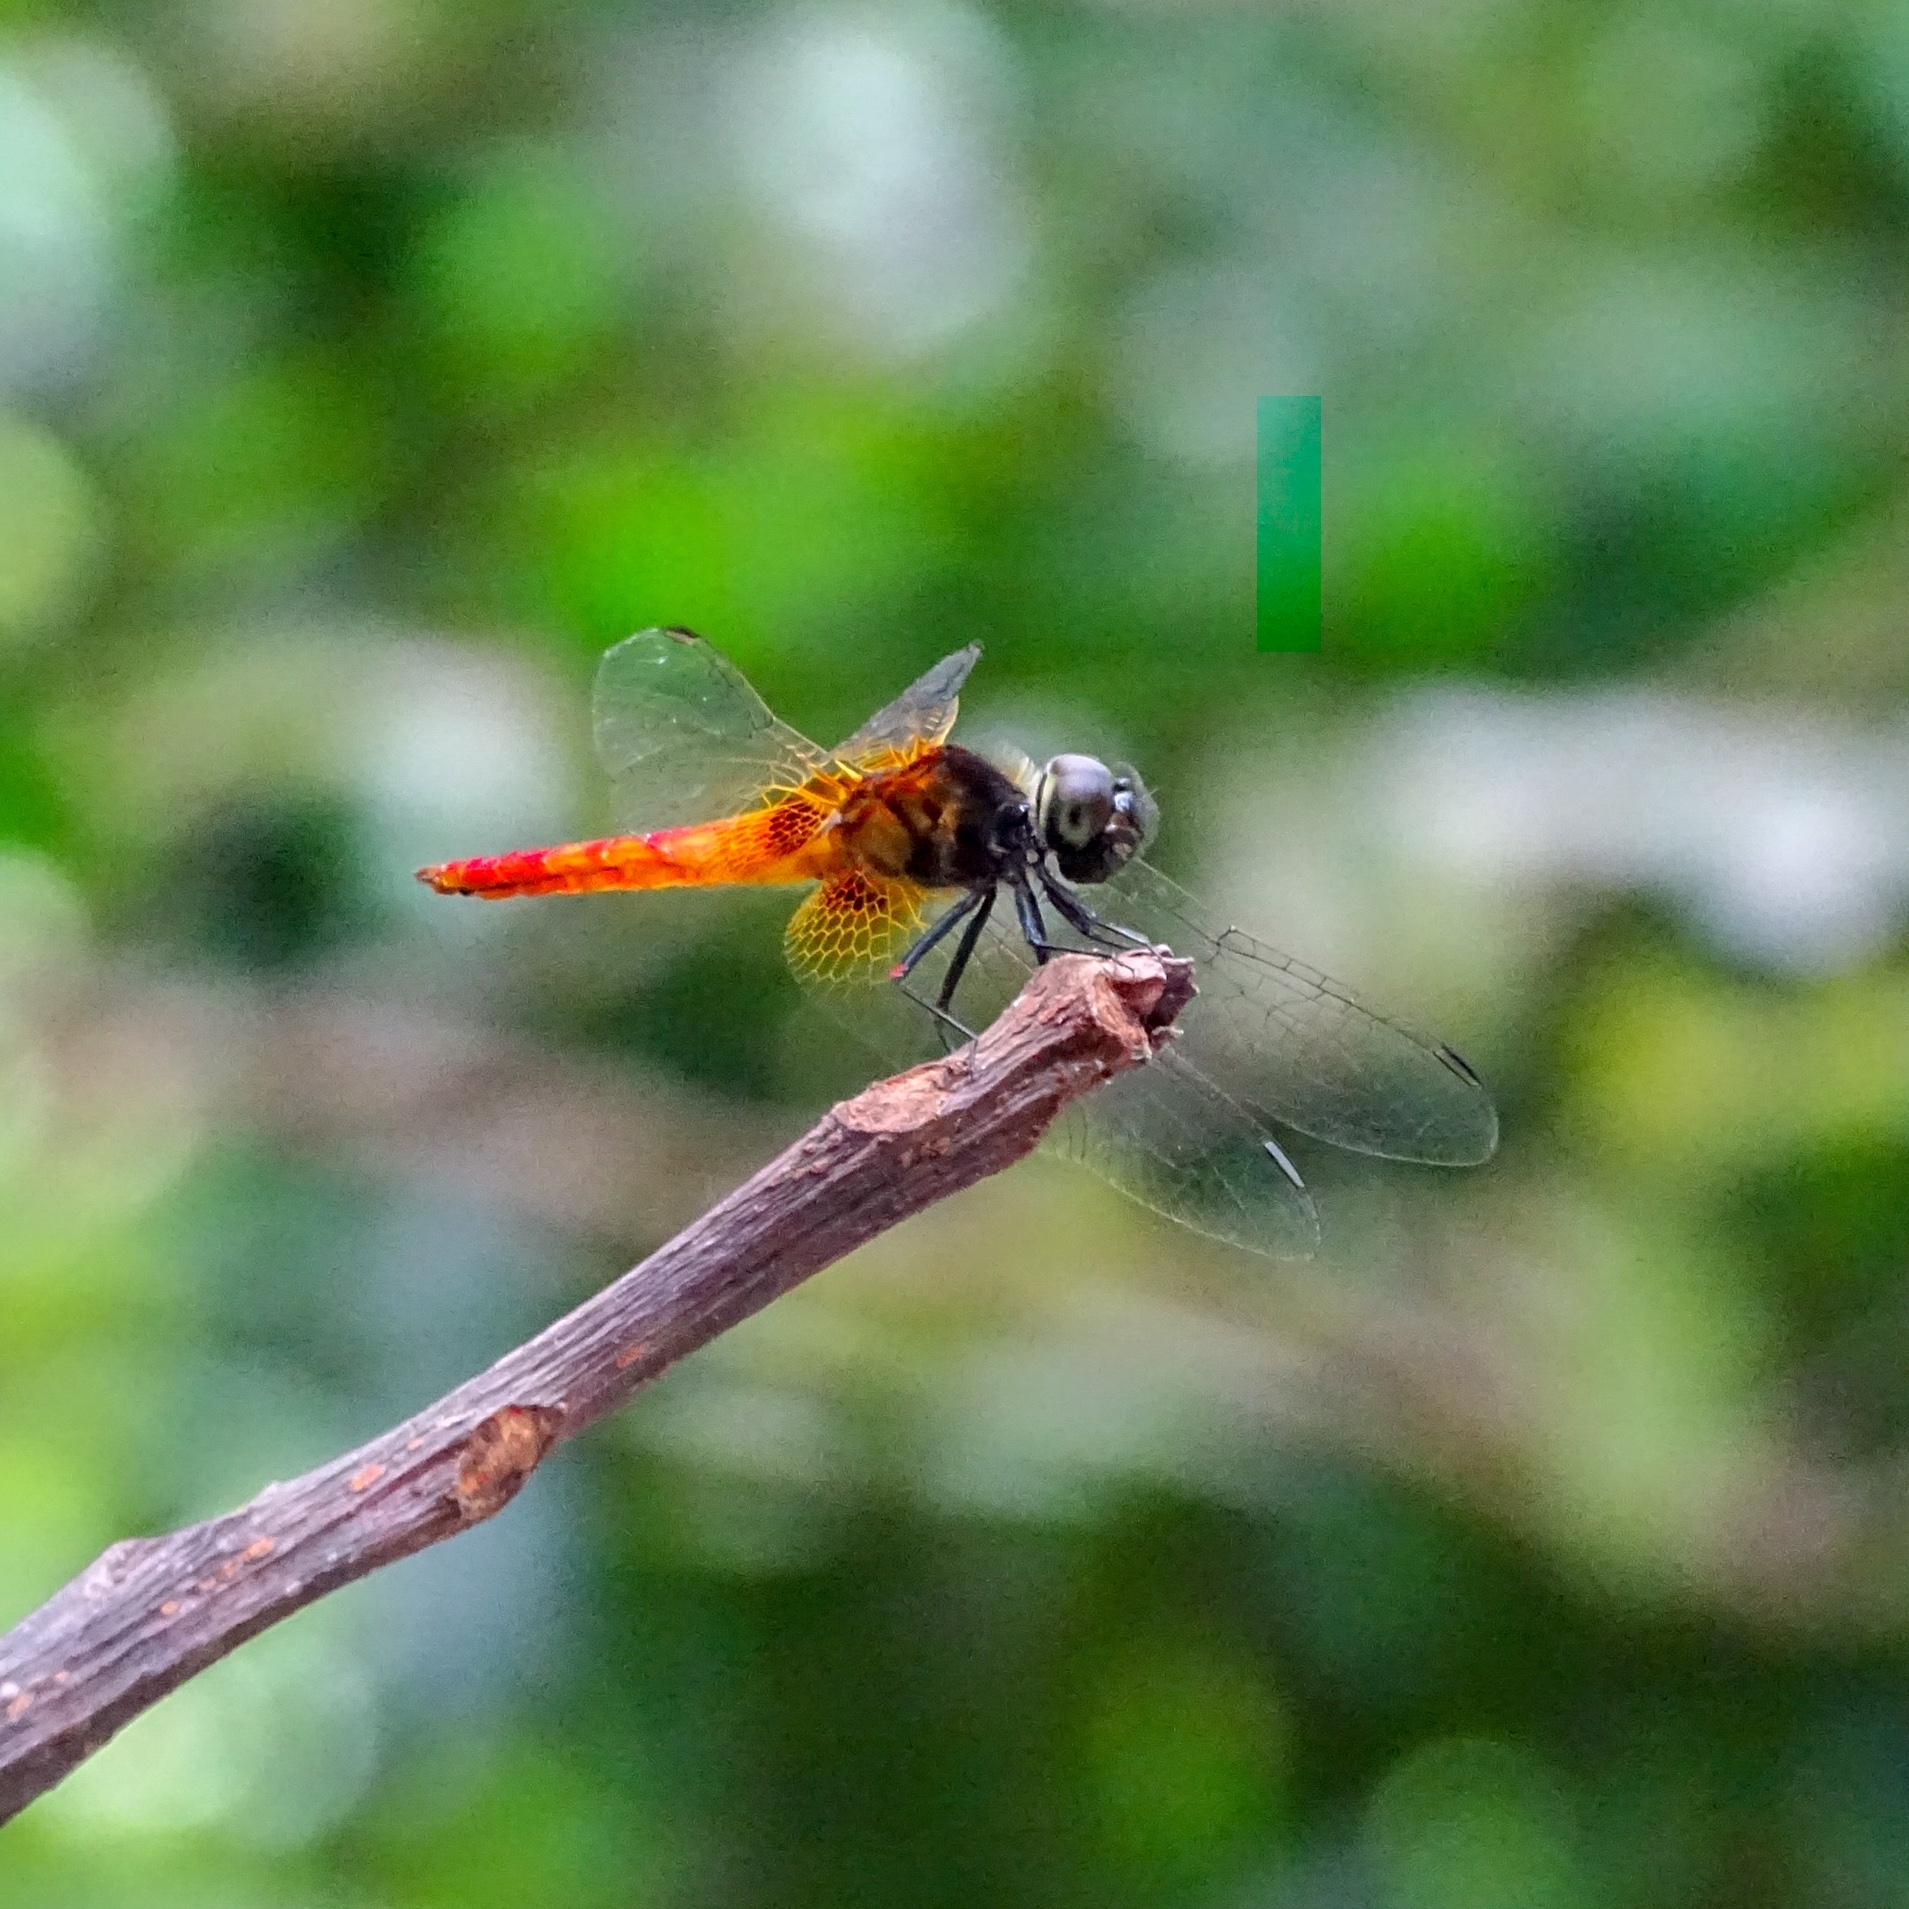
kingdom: Animalia
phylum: Arthropoda
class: Insecta
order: Odonata
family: Libellulidae
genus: Aethriamanta
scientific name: Aethriamanta brevipennis
